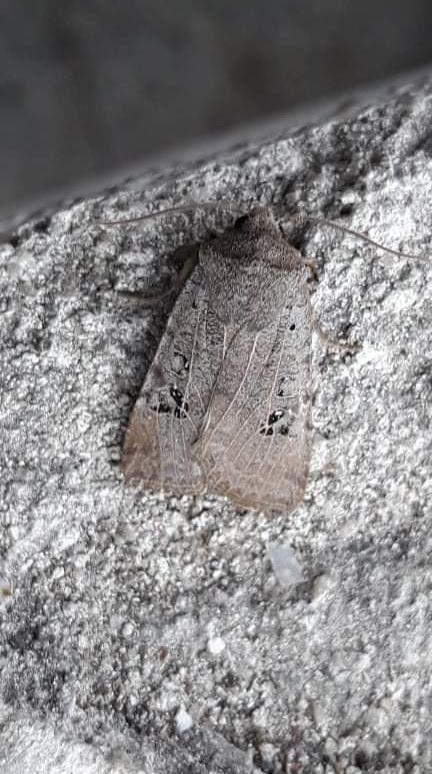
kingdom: Animalia
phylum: Arthropoda
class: Insecta
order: Lepidoptera
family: Noctuidae
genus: Conistra
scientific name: Conistra rubiginosa
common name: Black-spotted chestnut
